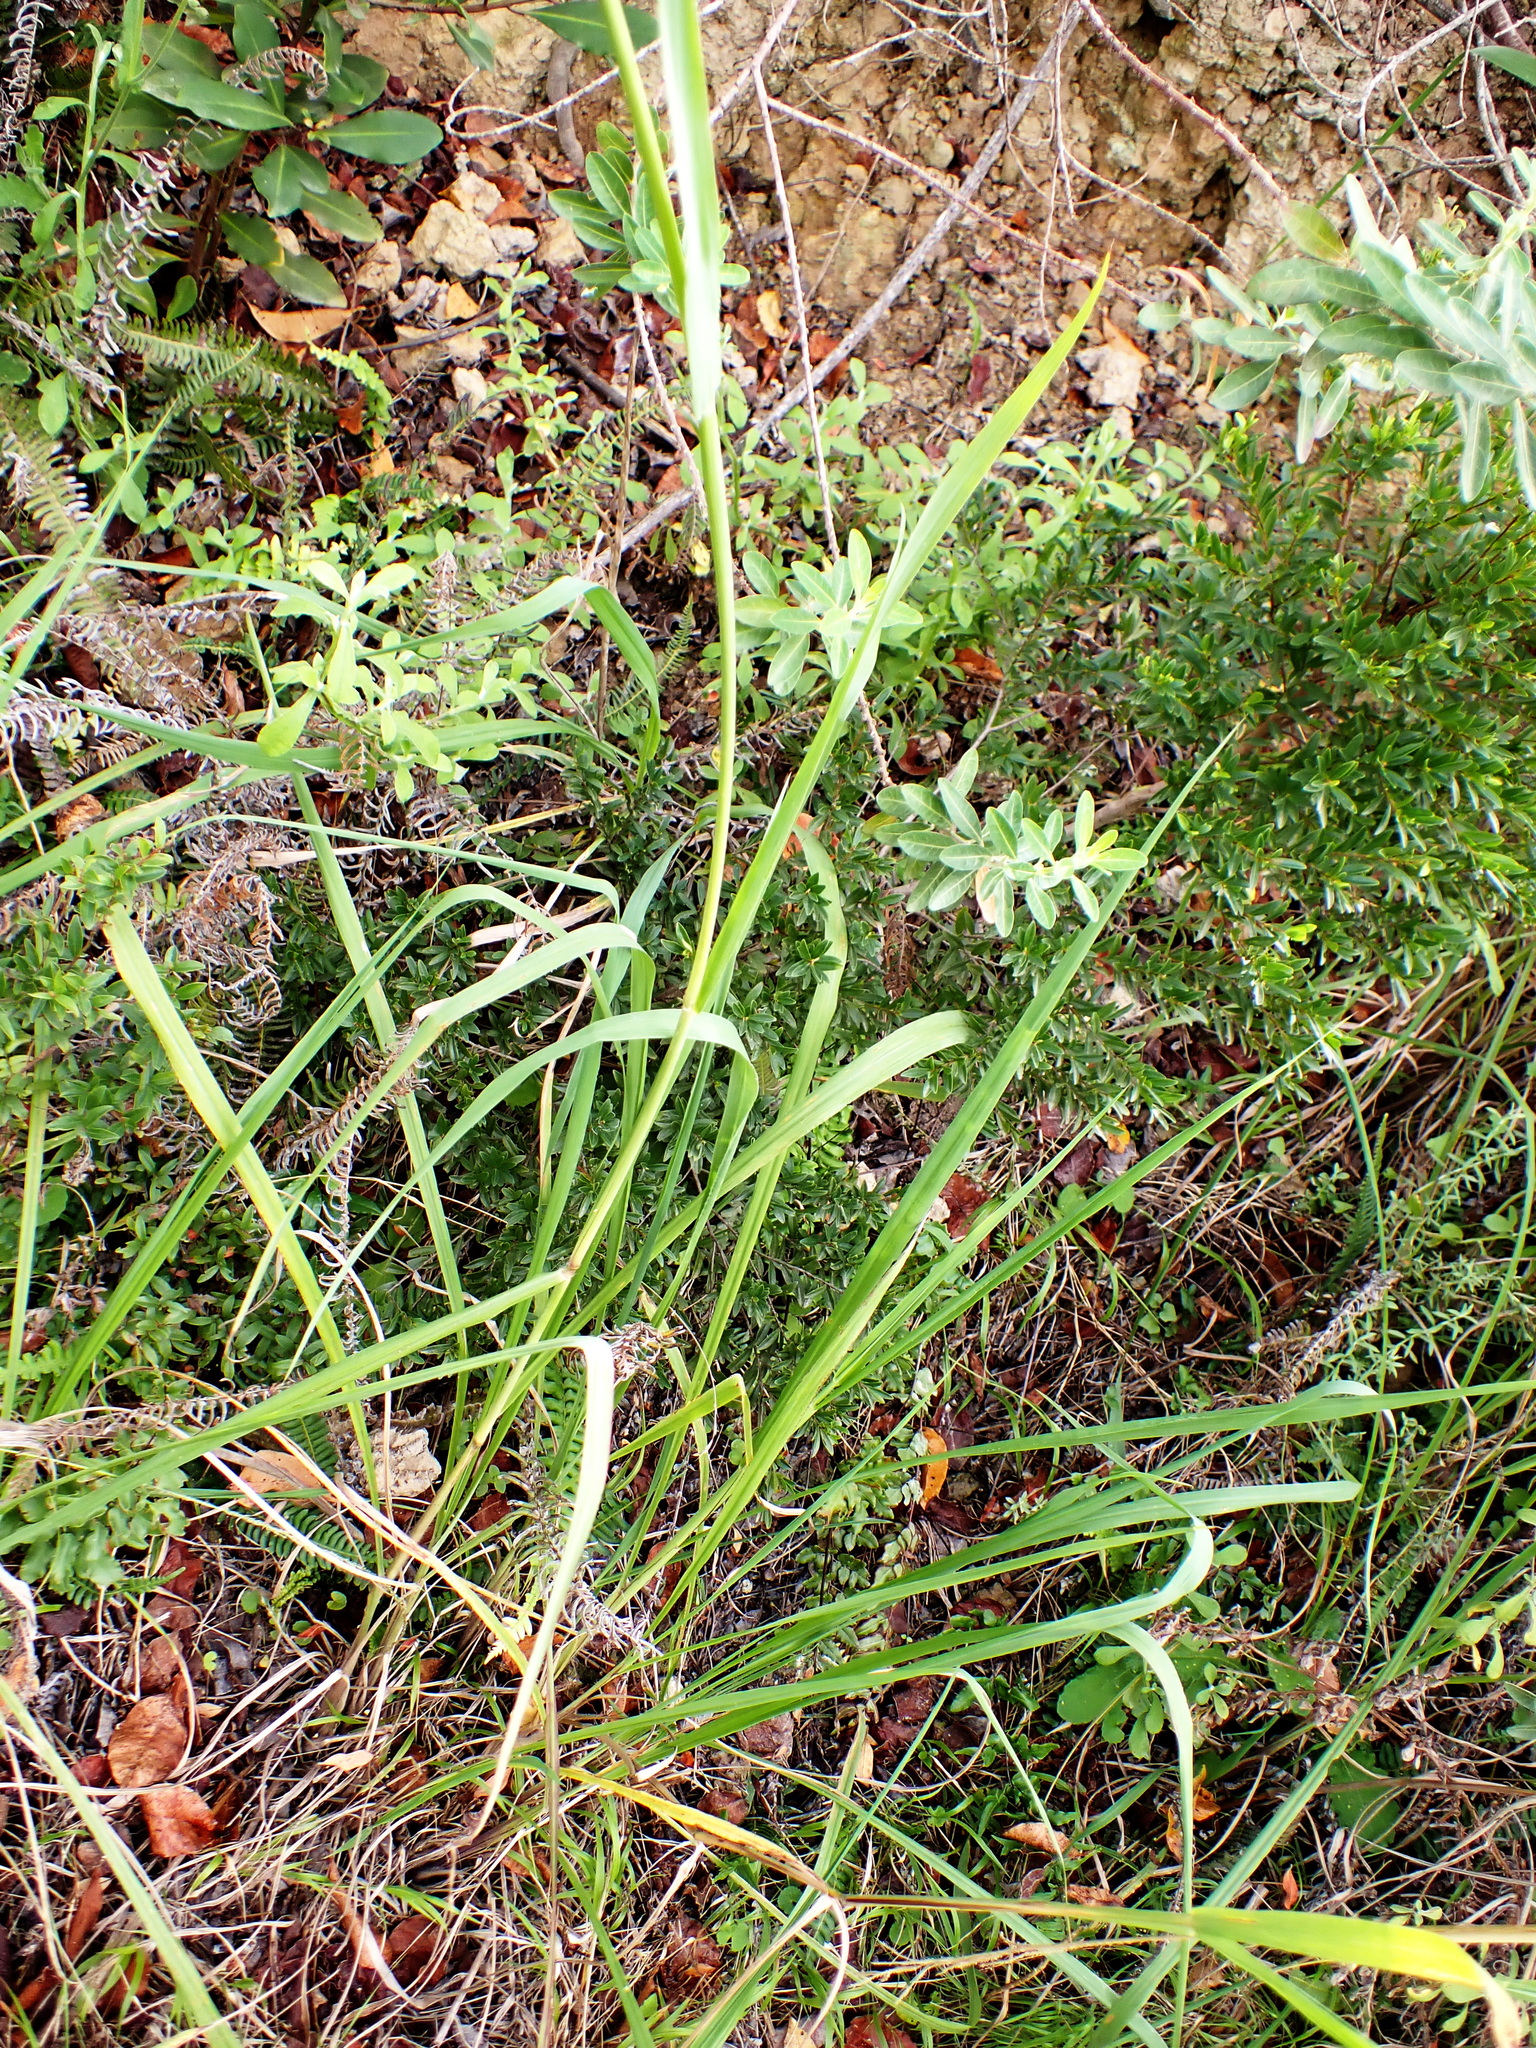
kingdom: Plantae
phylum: Tracheophyta
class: Liliopsida
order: Poales
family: Poaceae
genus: Paspalum
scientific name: Paspalum urvillei
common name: Vasey's grass
